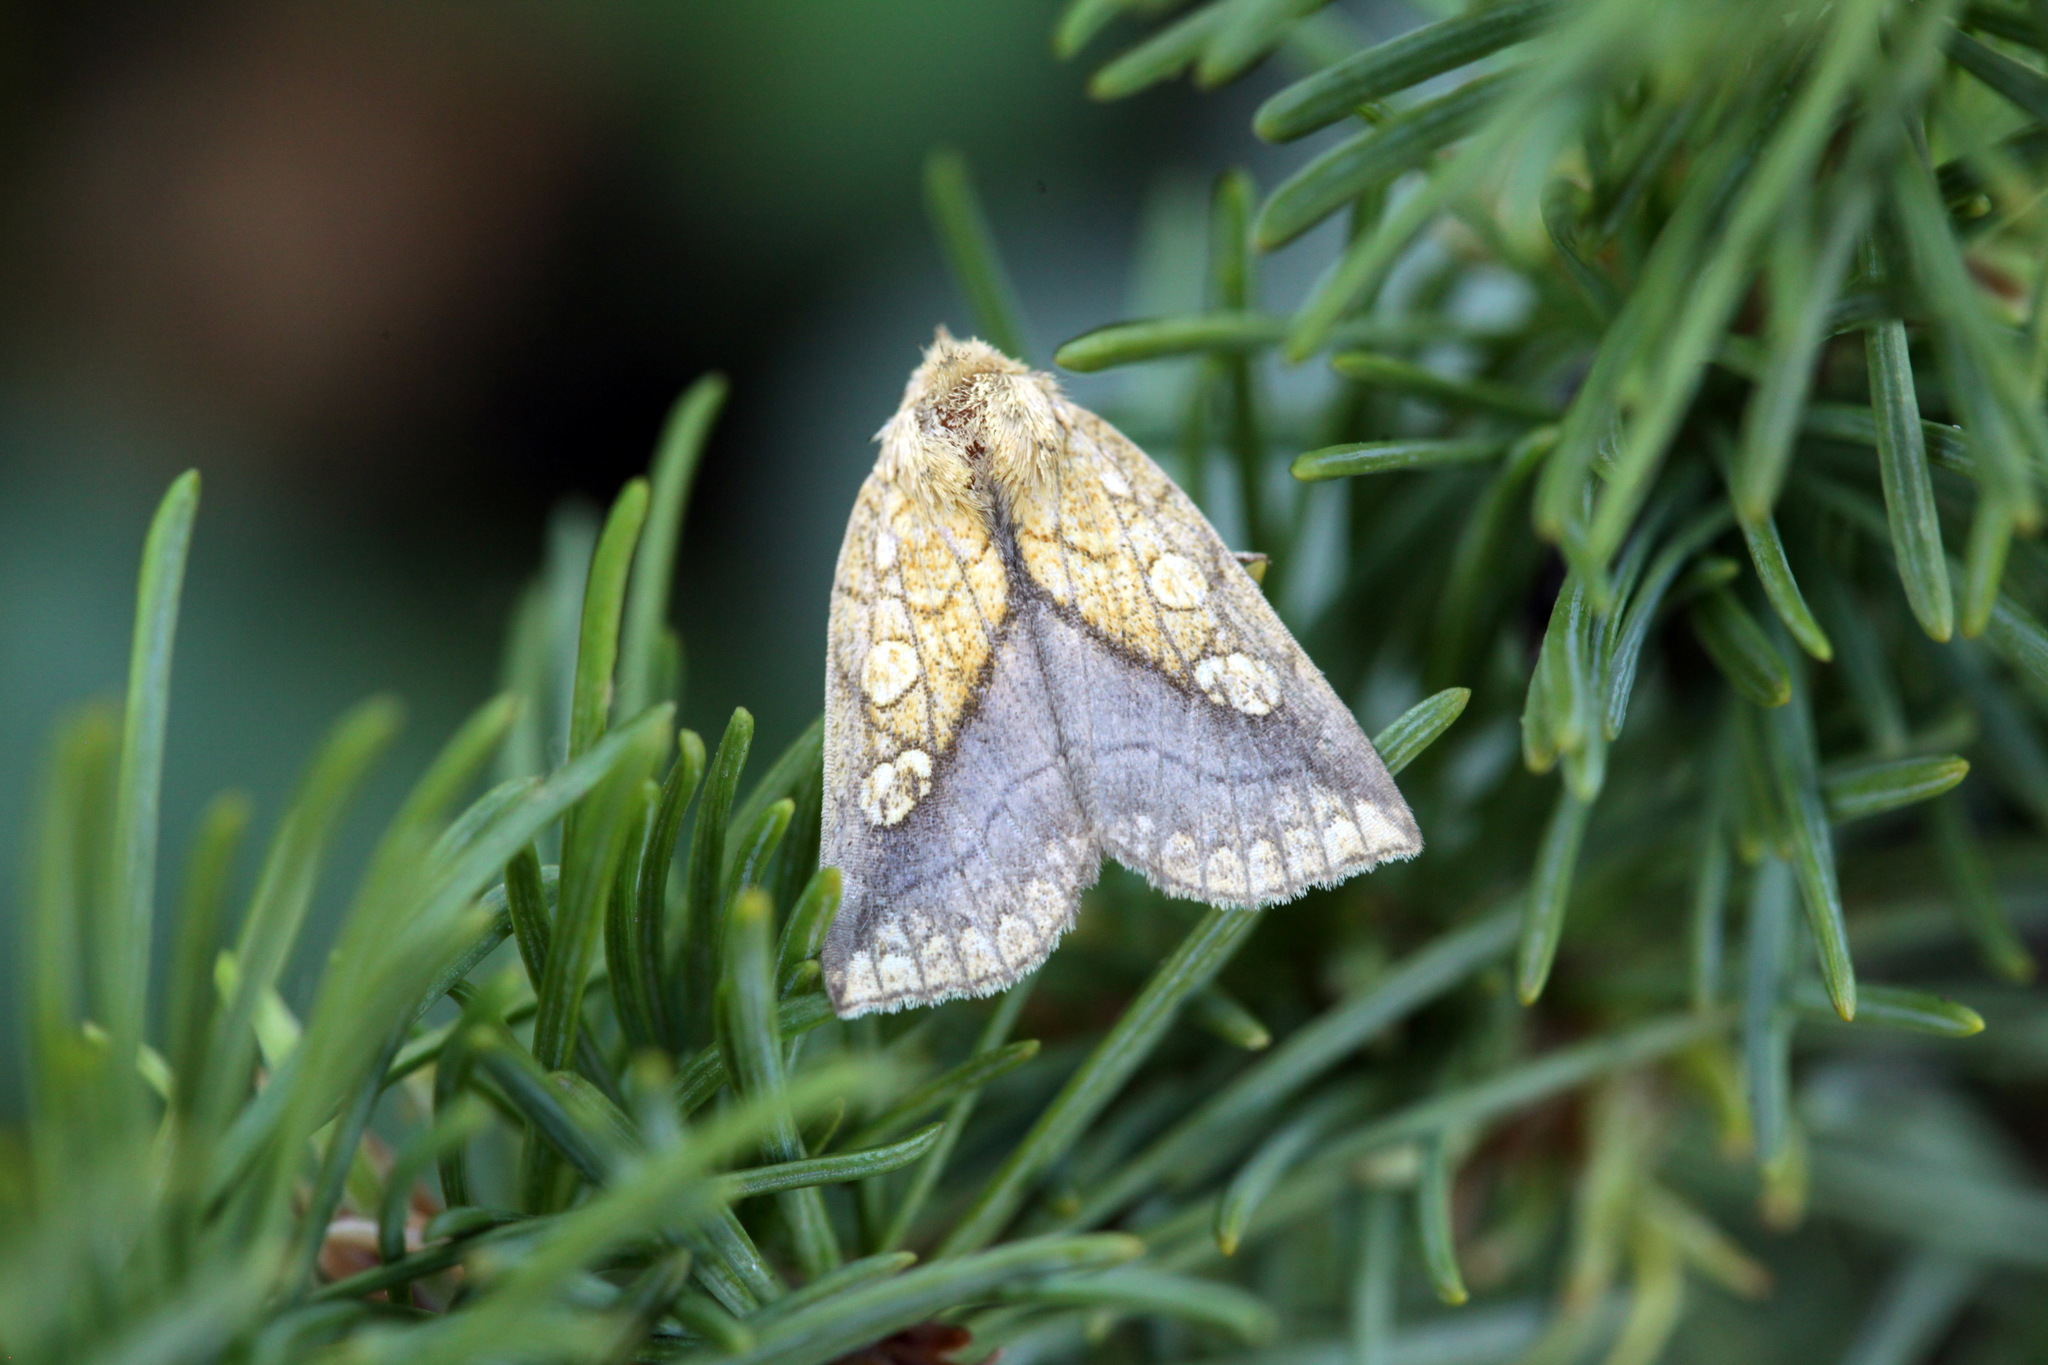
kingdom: Animalia
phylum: Arthropoda
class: Insecta
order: Lepidoptera
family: Noctuidae
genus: Brachyxanthia
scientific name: Brachyxanthia zelotypa
